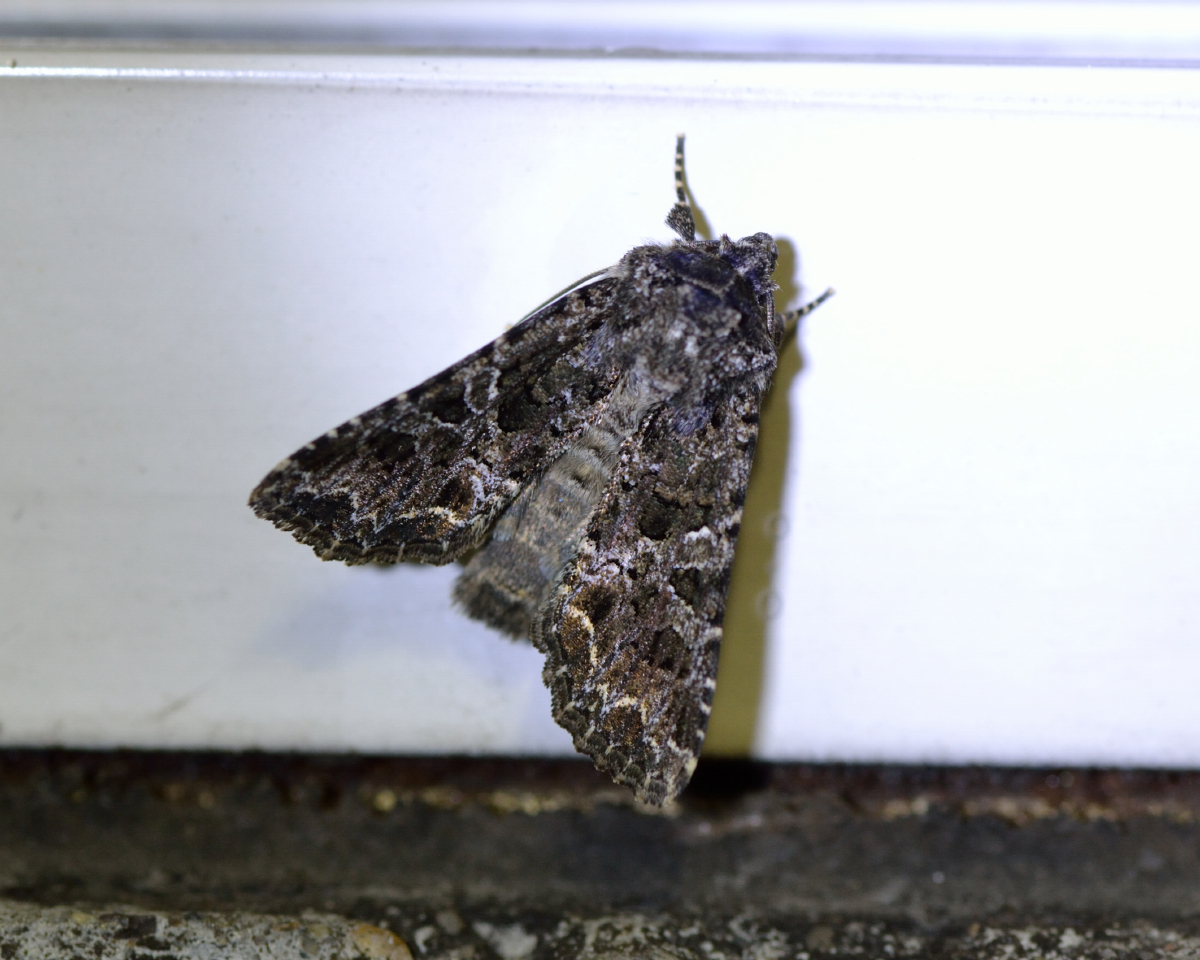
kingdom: Animalia
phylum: Arthropoda
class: Insecta
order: Lepidoptera
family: Noctuidae
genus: Hadena
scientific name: Hadena capsincola
